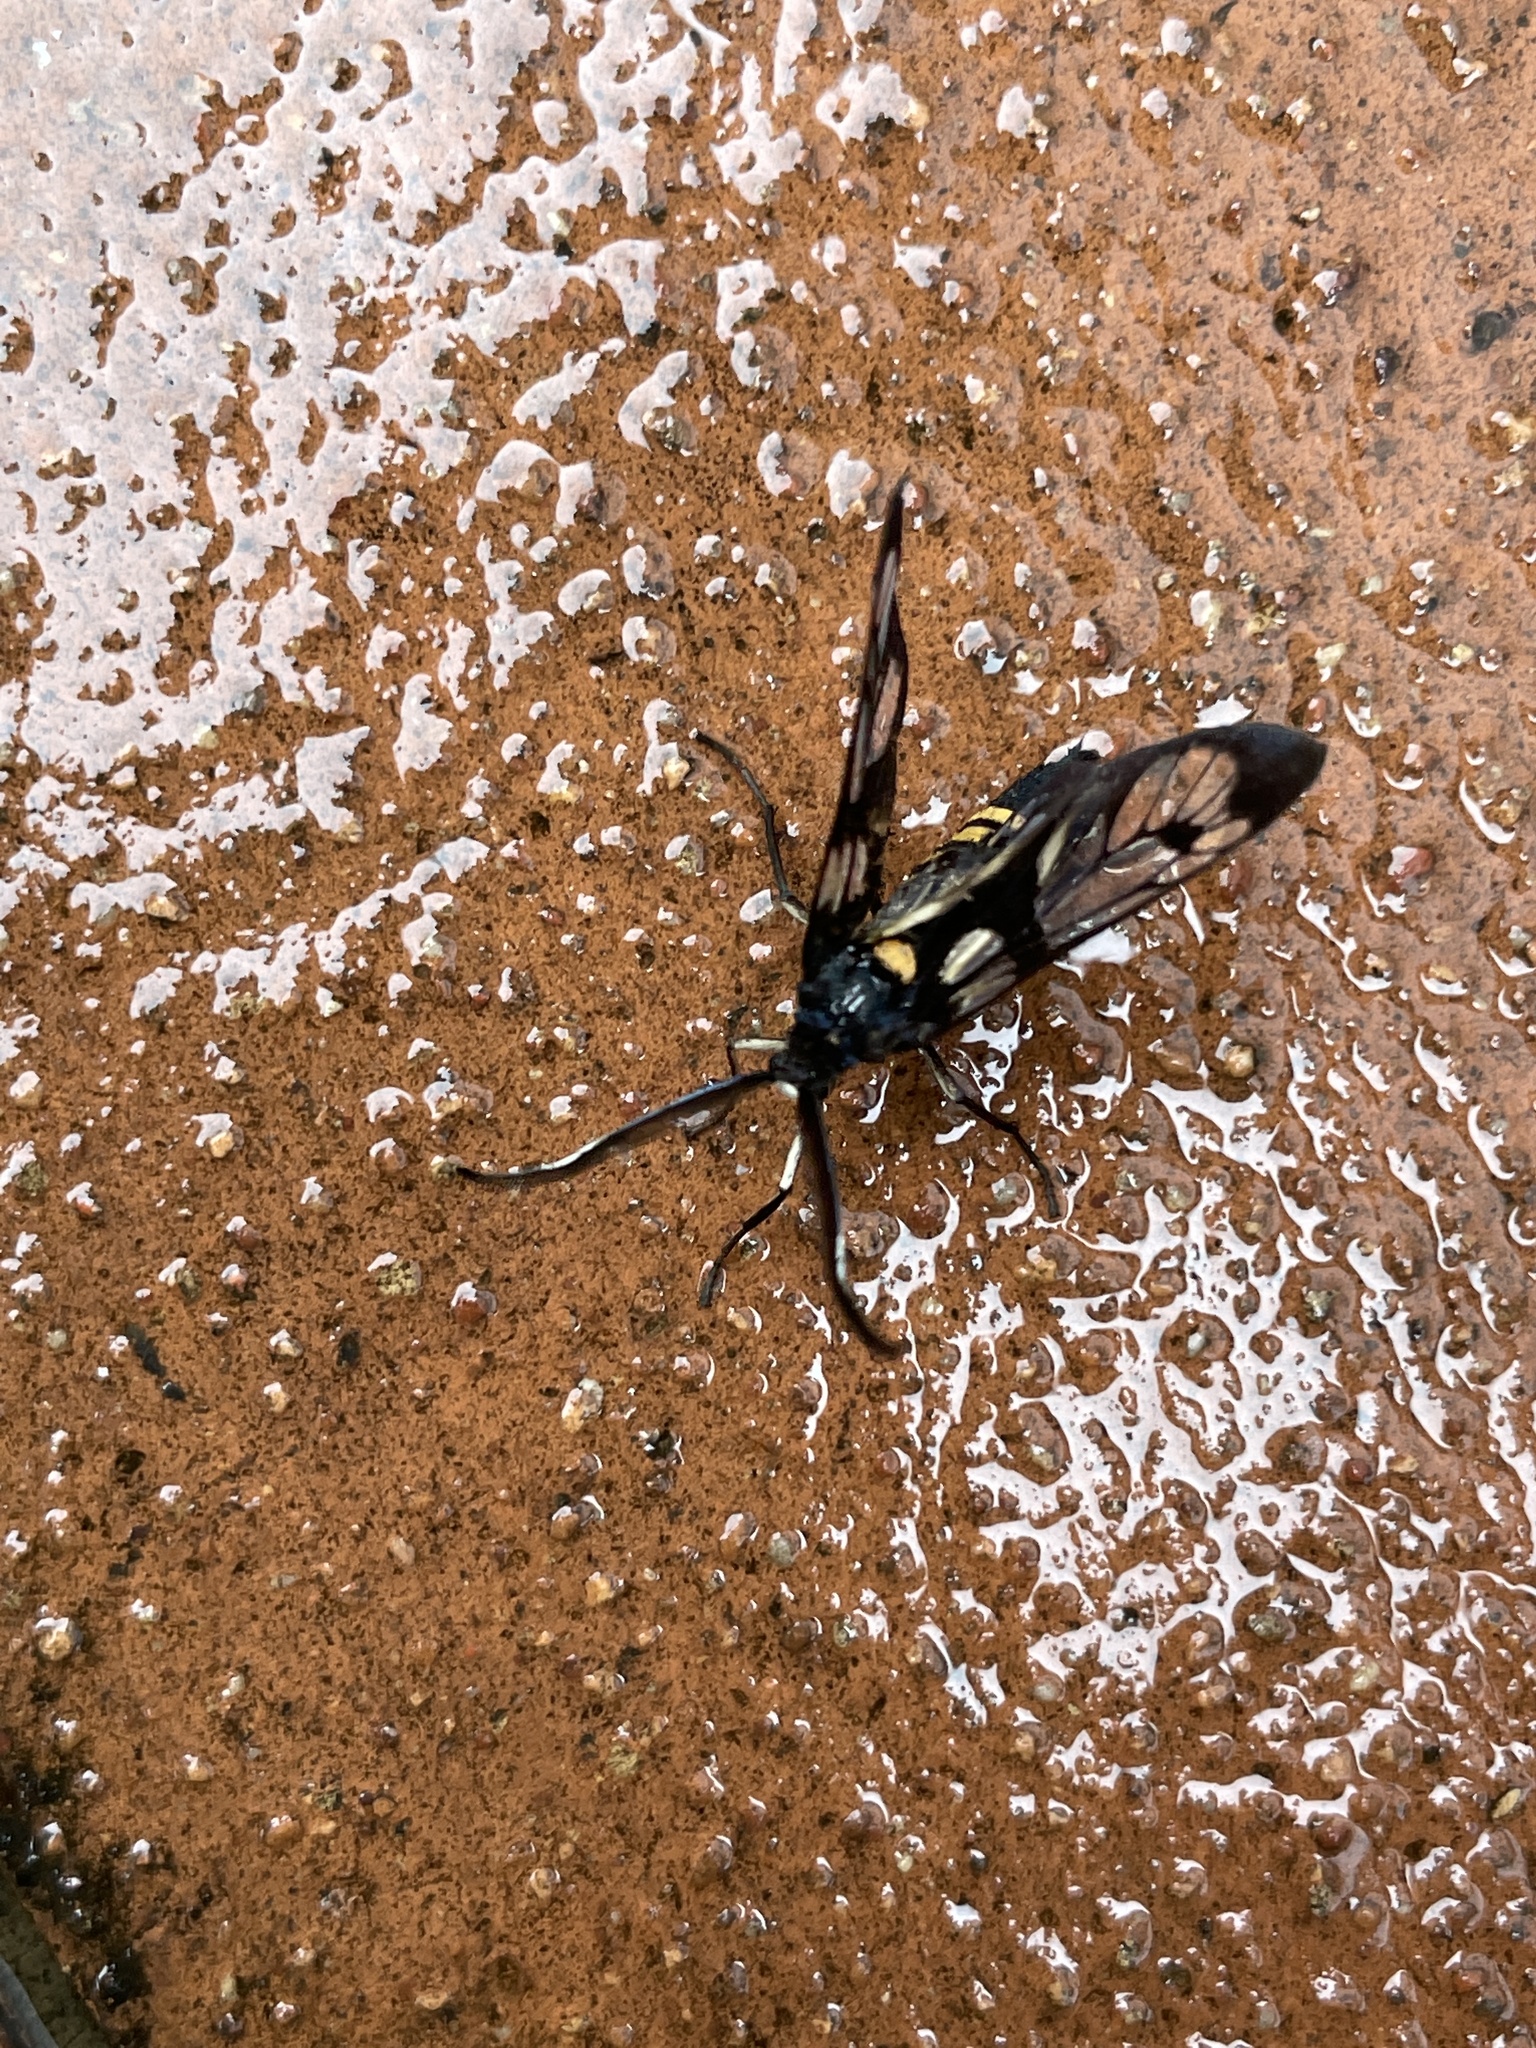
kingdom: Animalia
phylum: Arthropoda
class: Insecta
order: Lepidoptera
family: Zygaenidae
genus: Trypanophora
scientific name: Trypanophora semihyalina
